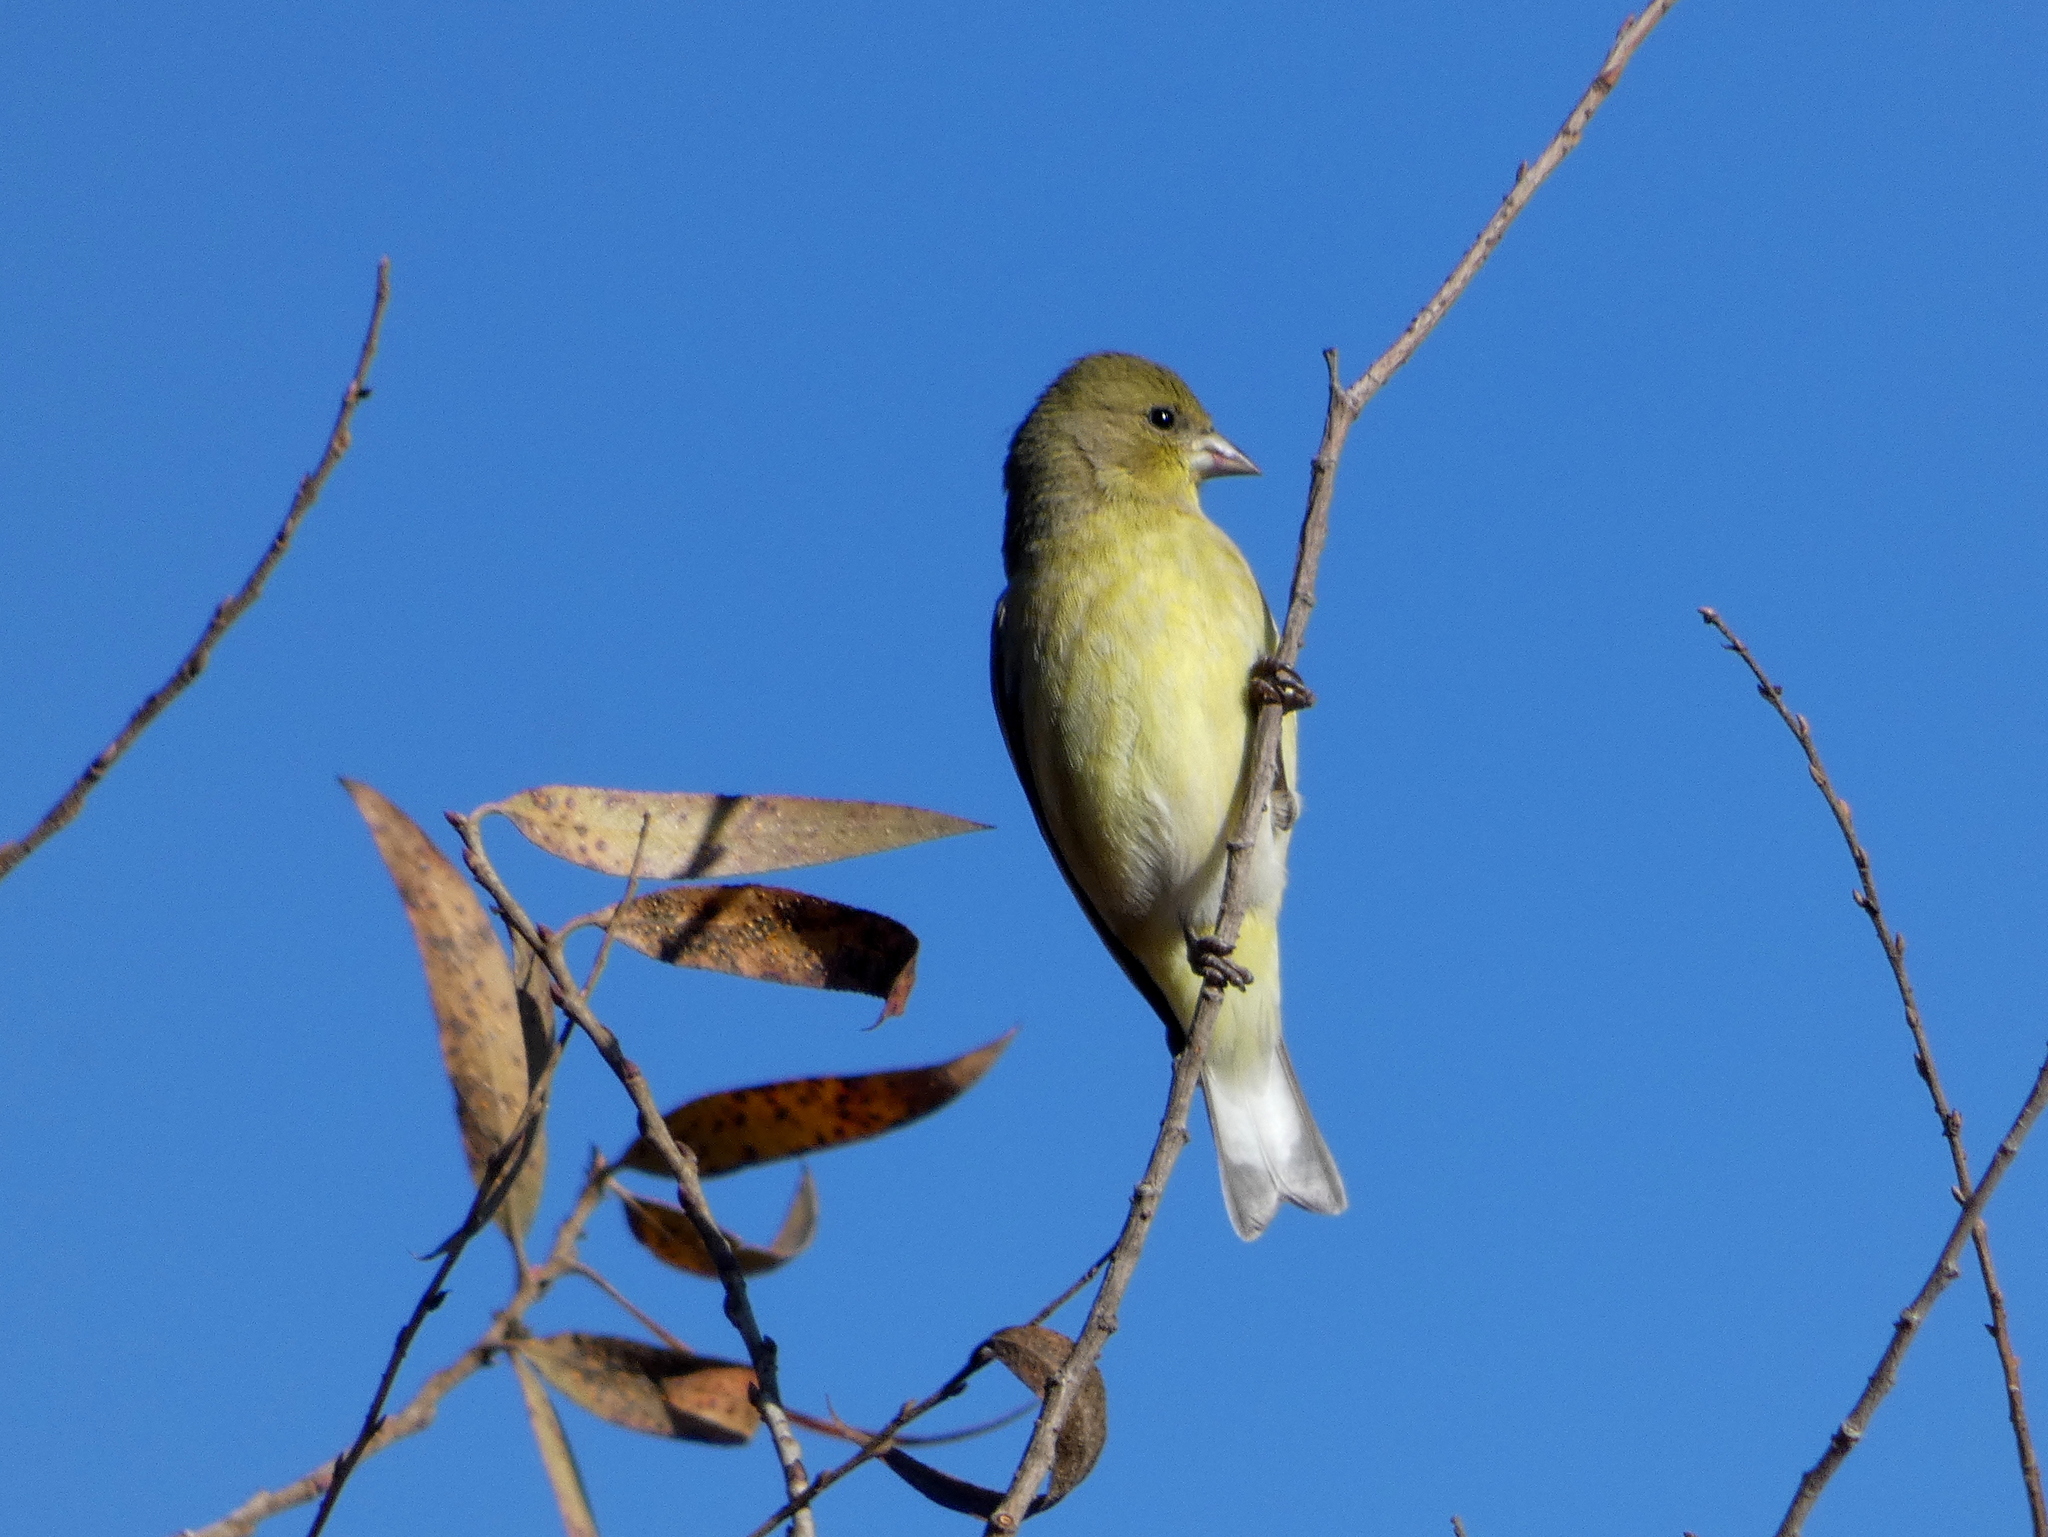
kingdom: Animalia
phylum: Chordata
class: Aves
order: Passeriformes
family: Fringillidae
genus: Spinus
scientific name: Spinus psaltria
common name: Lesser goldfinch
